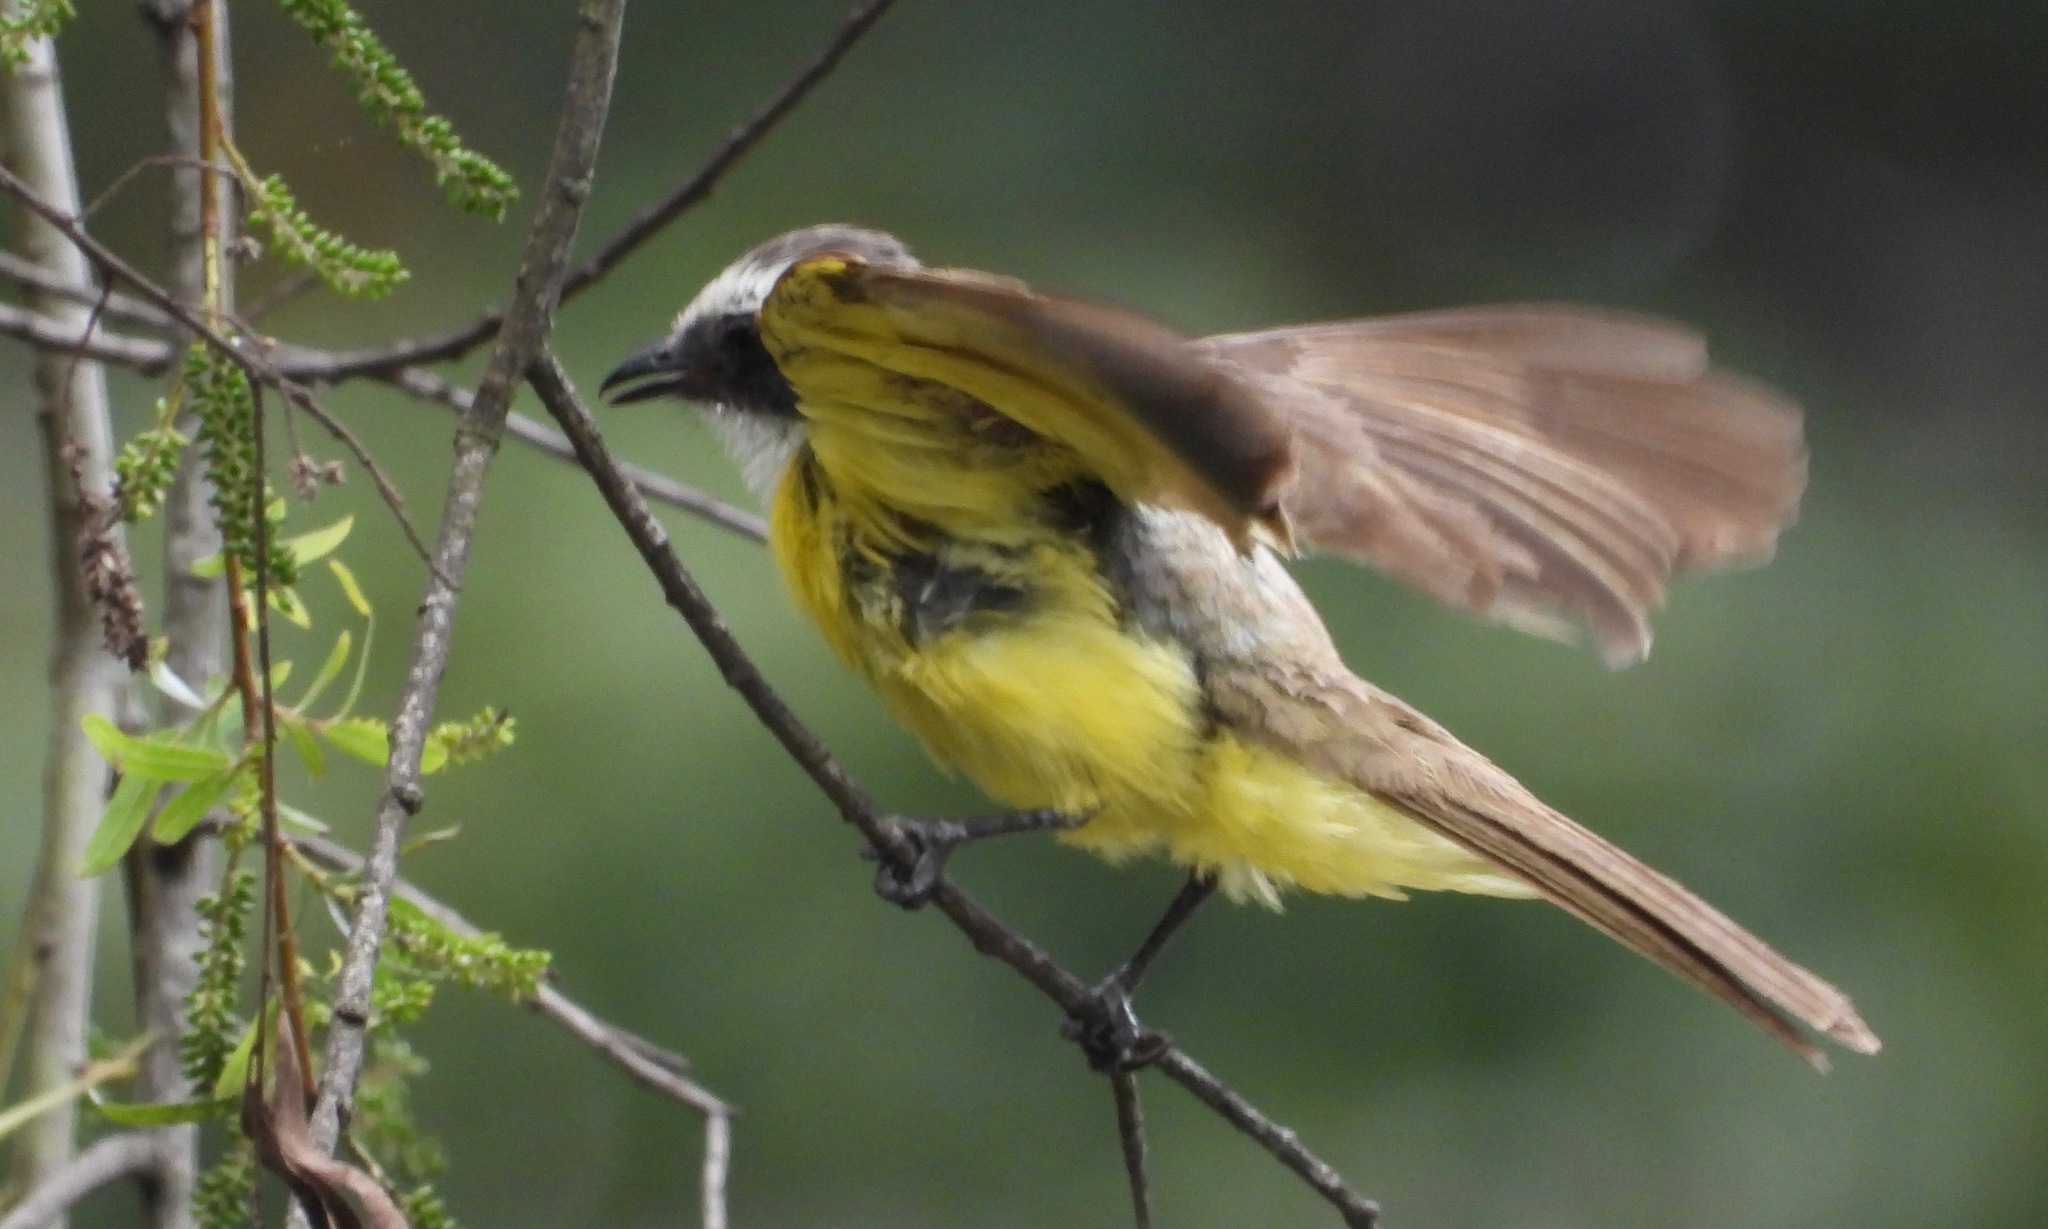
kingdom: Animalia
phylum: Chordata
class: Aves
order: Passeriformes
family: Tyrannidae
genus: Myiozetetes
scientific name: Myiozetetes similis
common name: Social flycatcher
